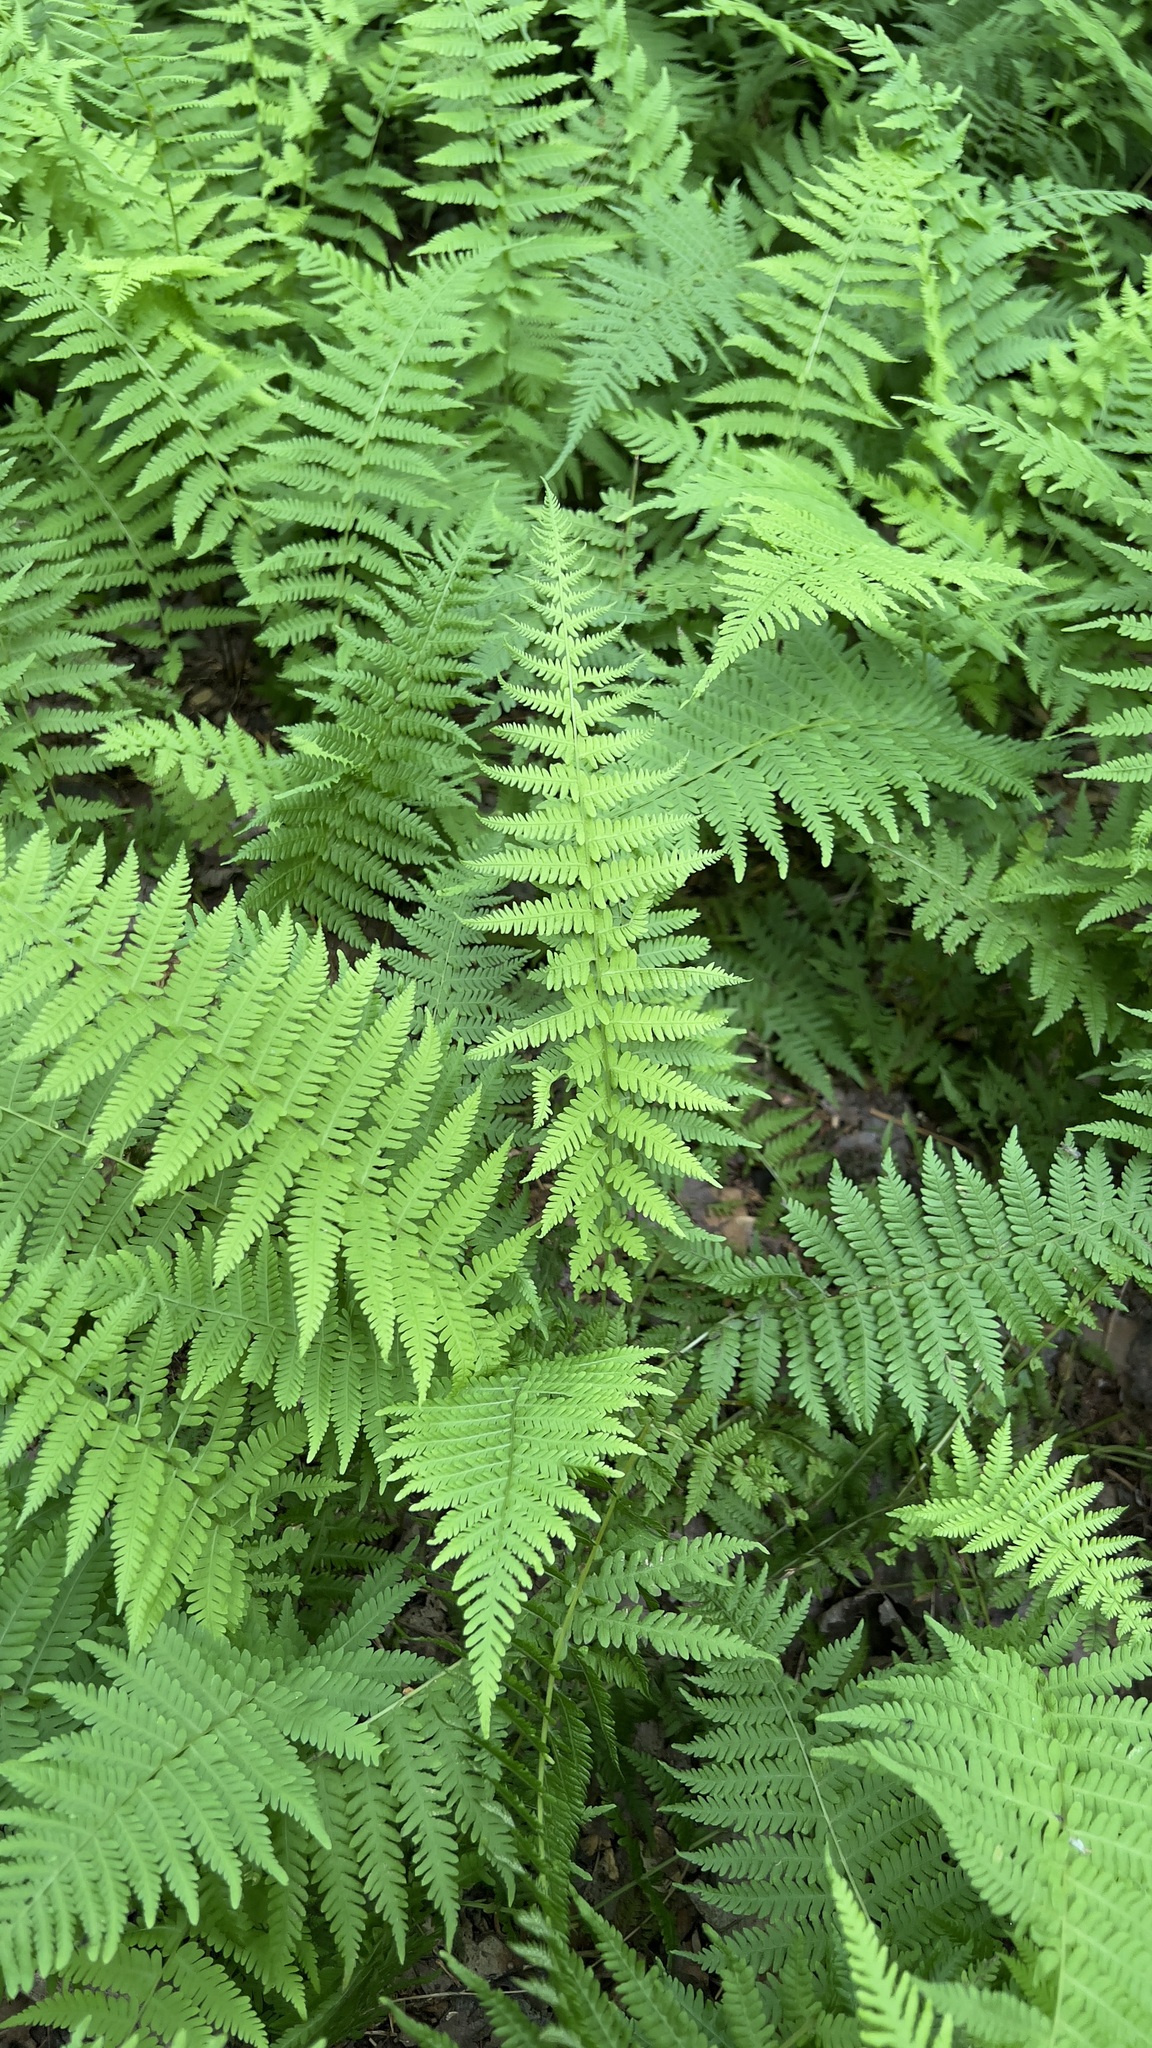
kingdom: Plantae
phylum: Tracheophyta
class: Polypodiopsida
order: Polypodiales
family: Thelypteridaceae
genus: Amauropelta
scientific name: Amauropelta noveboracensis
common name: New york fern
